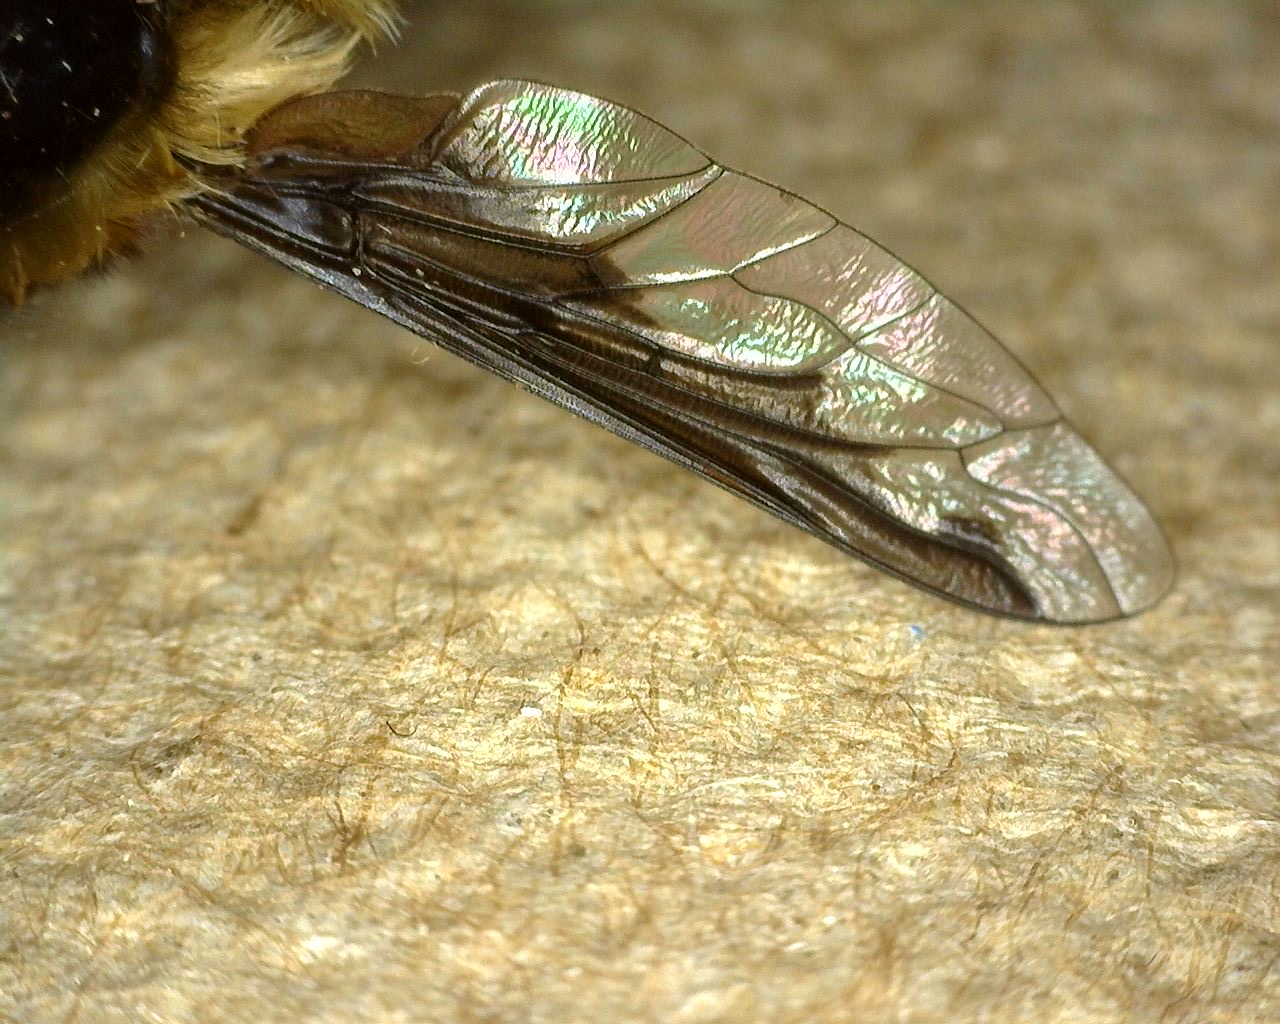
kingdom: Animalia
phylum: Arthropoda
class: Insecta
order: Diptera
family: Bombyliidae
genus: Bombylius
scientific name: Bombylius major
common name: Bee fly
